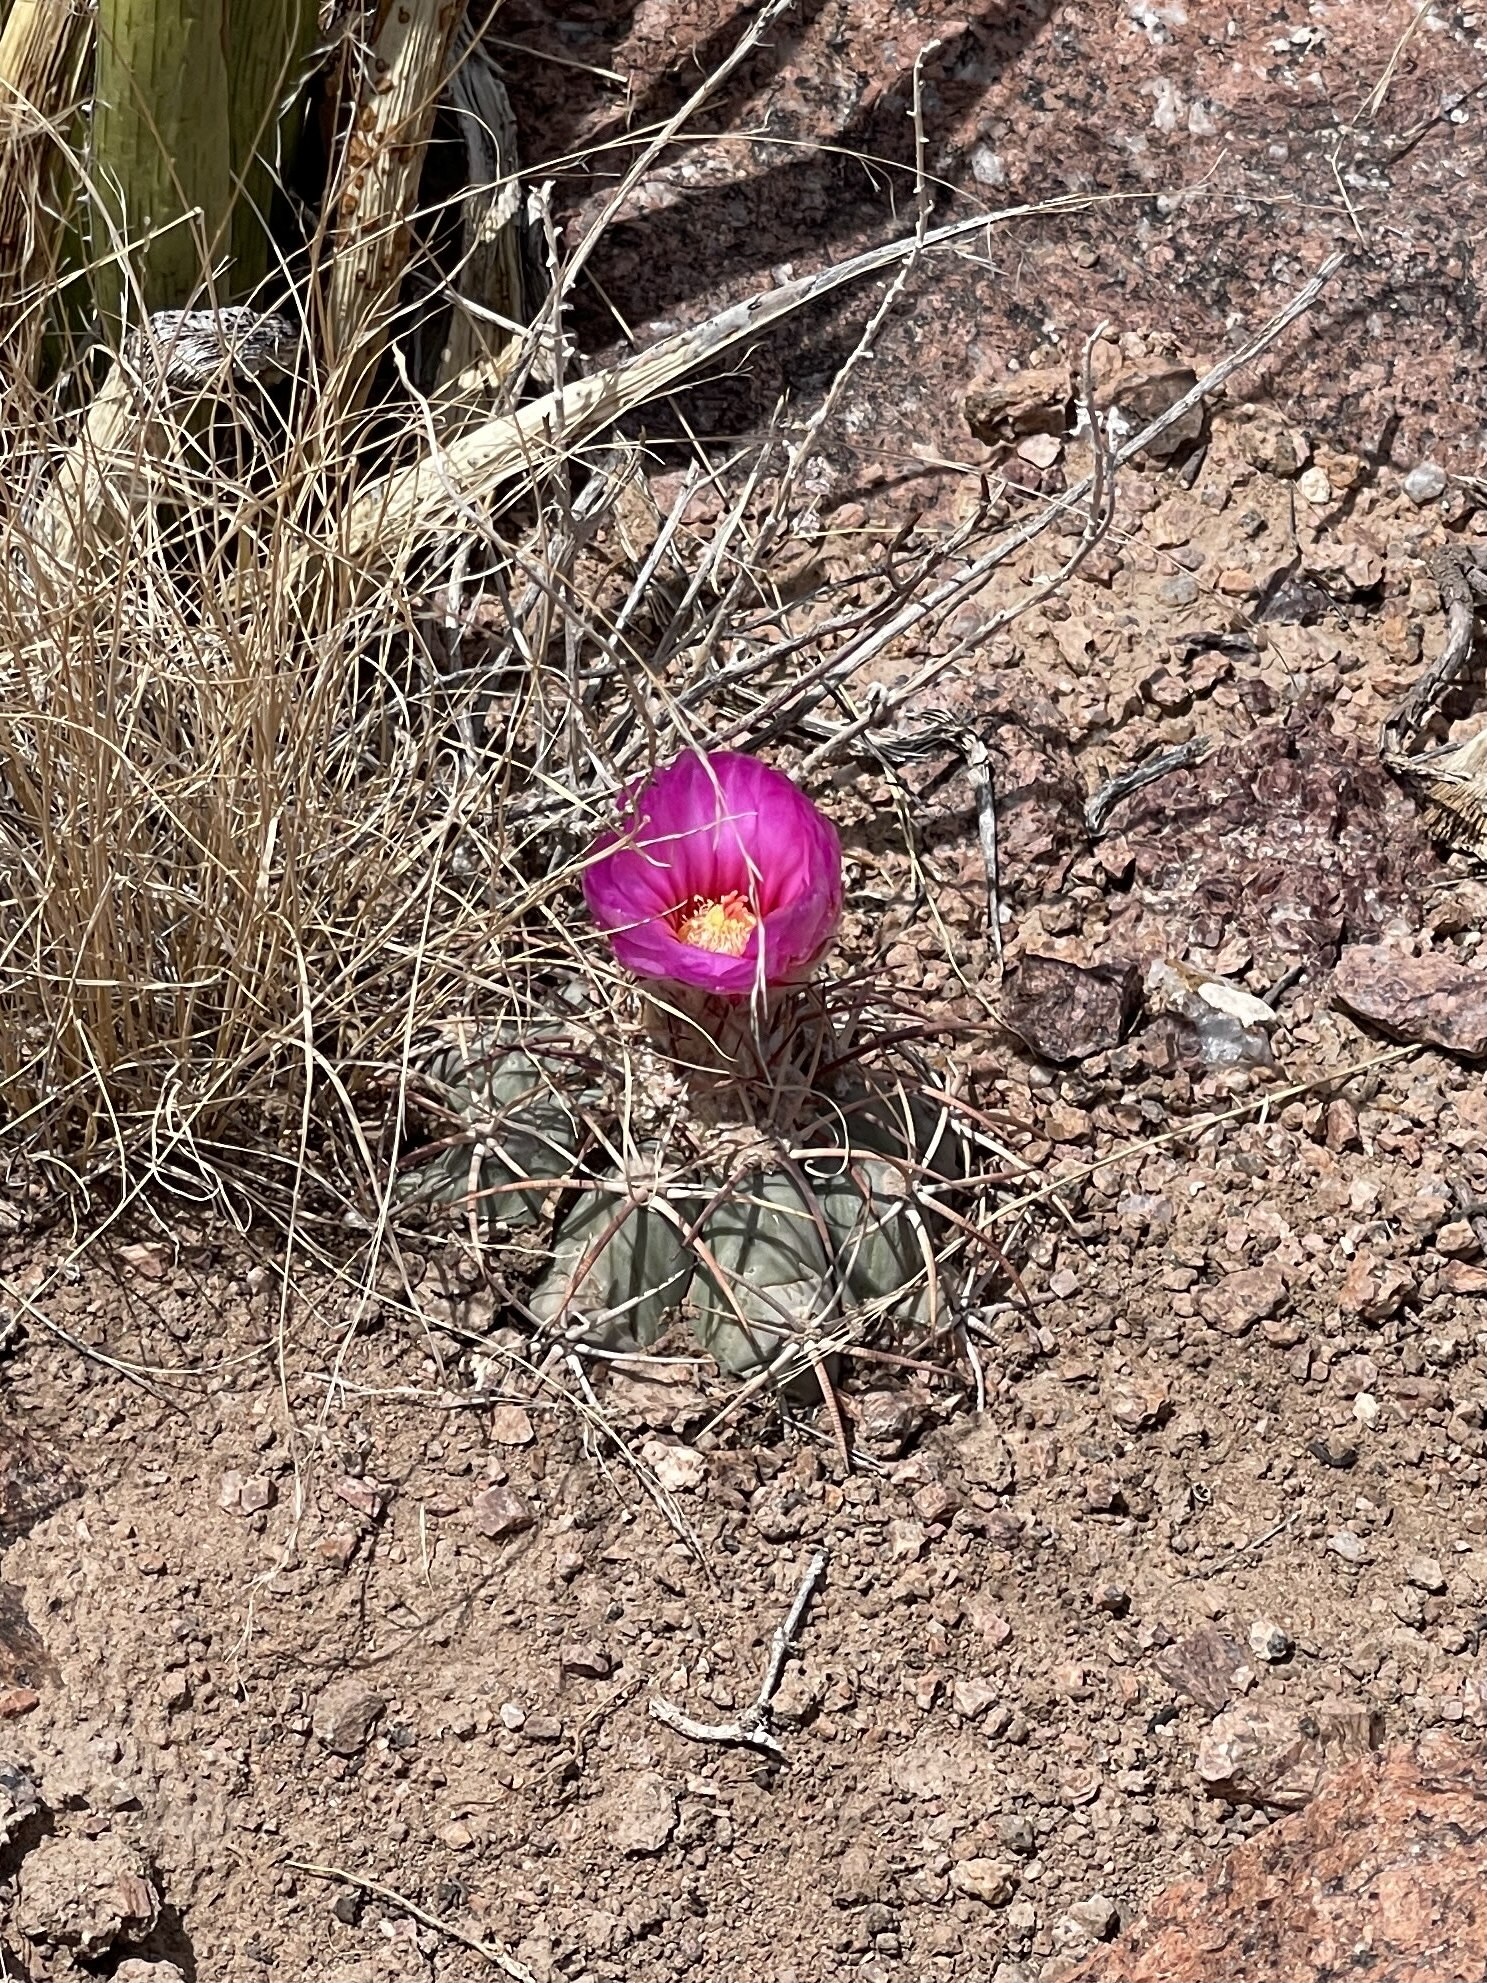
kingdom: Plantae
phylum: Tracheophyta
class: Magnoliopsida
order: Caryophyllales
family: Cactaceae
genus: Echinocactus
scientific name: Echinocactus horizonthalonius
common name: Devilshead
